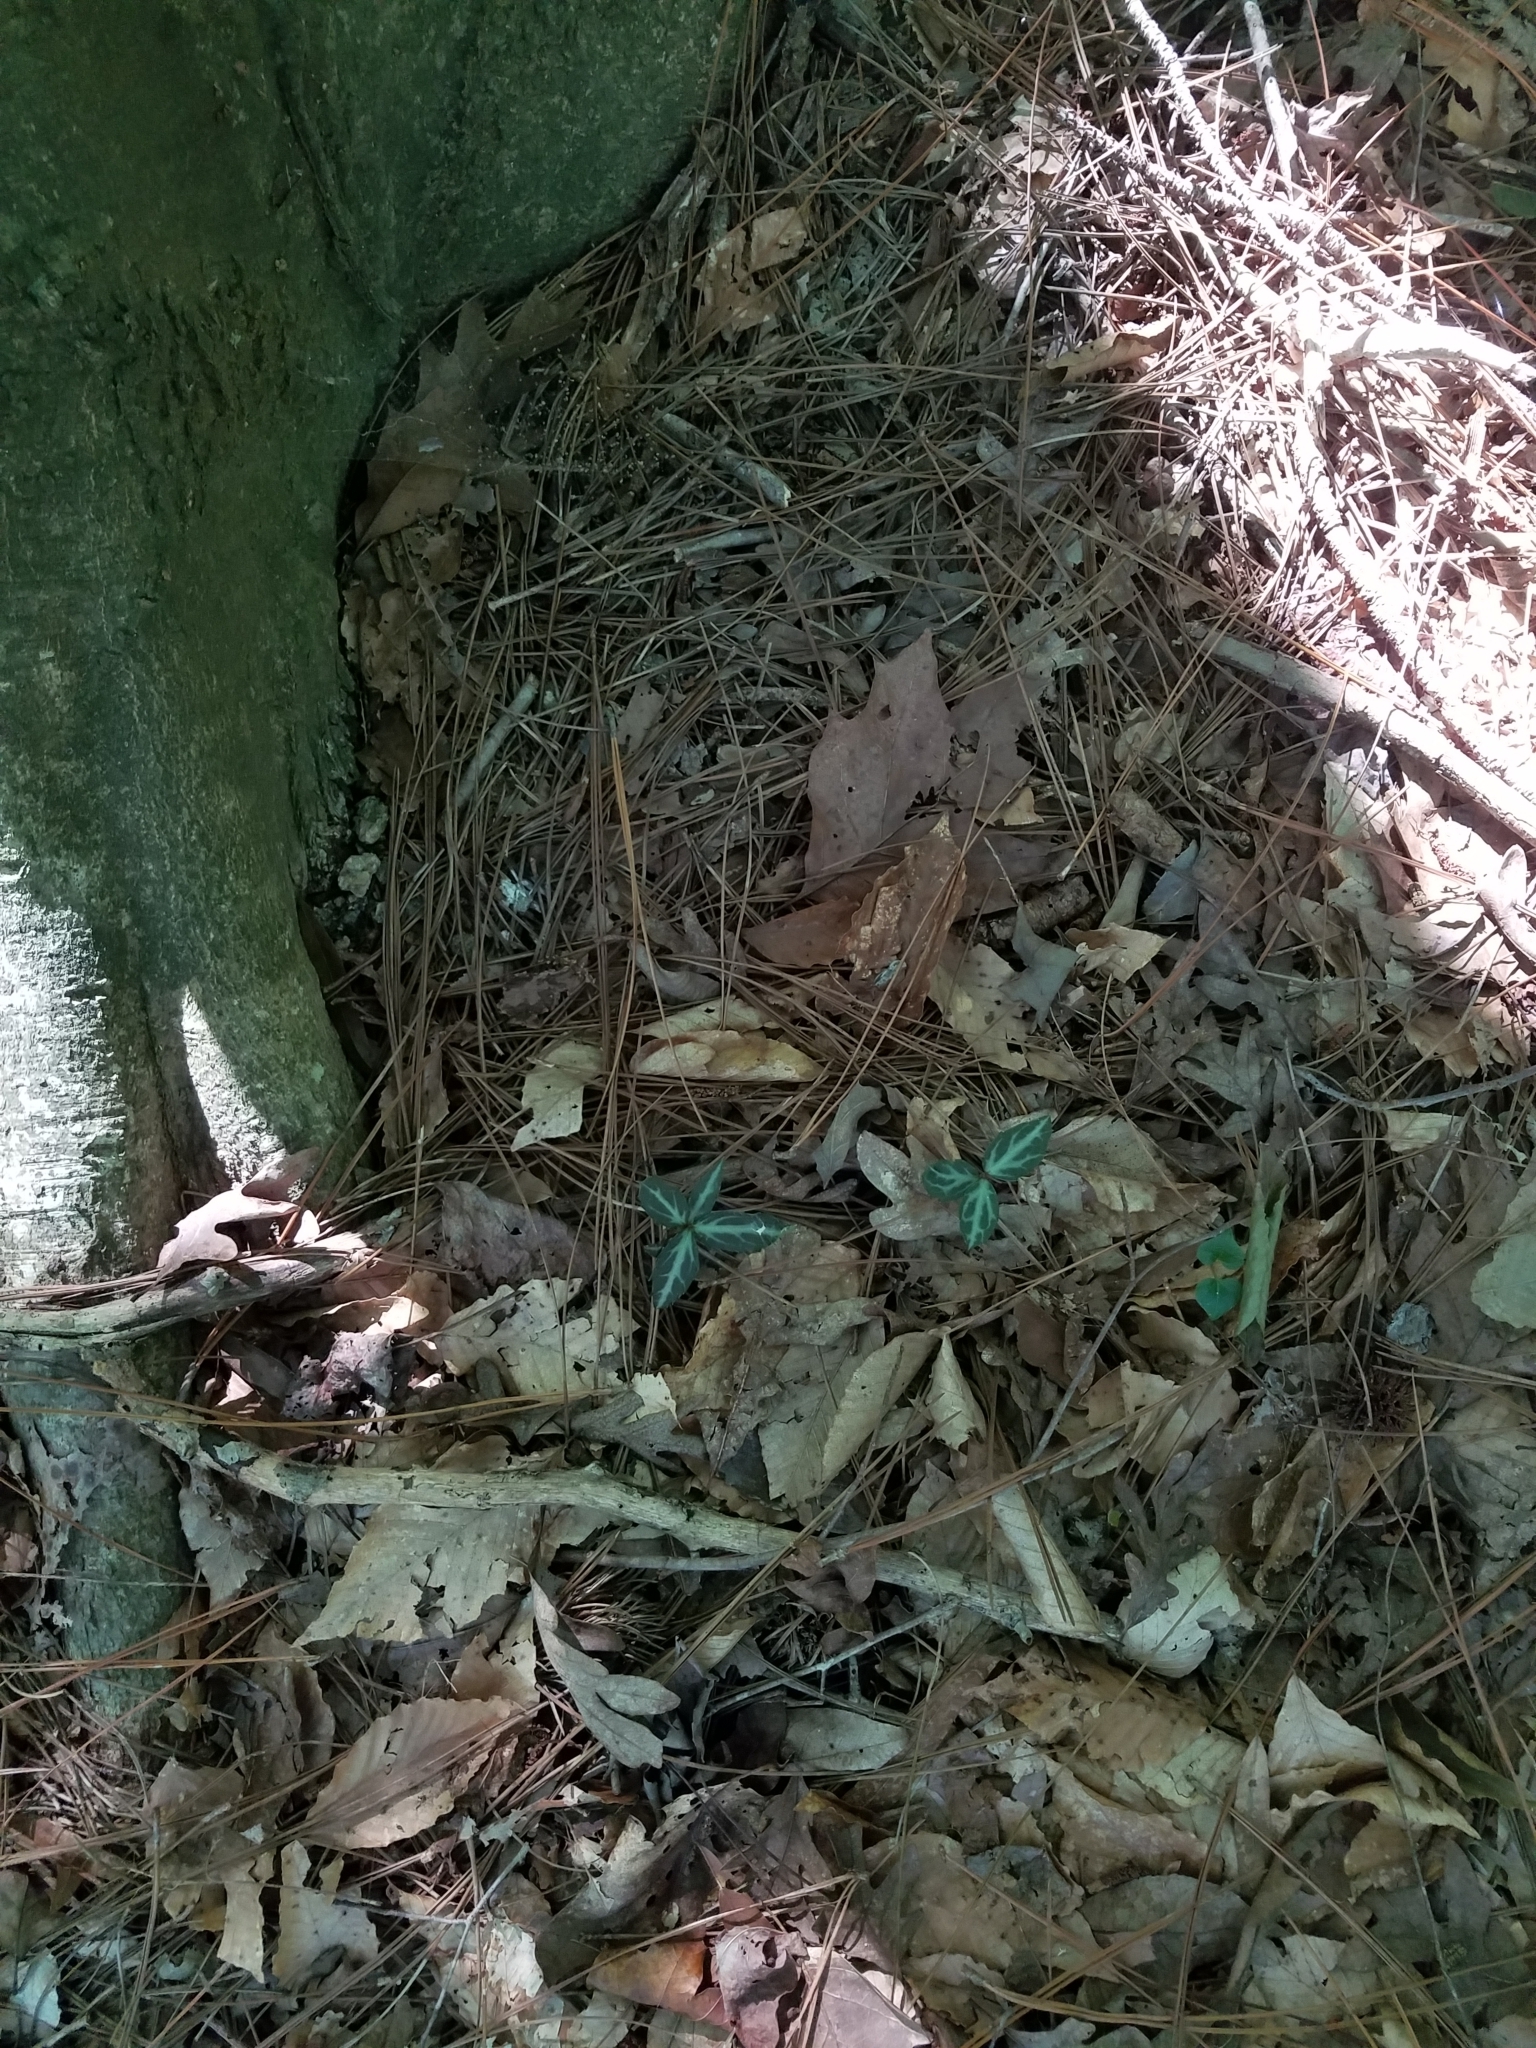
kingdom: Plantae
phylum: Tracheophyta
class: Magnoliopsida
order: Ericales
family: Ericaceae
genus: Chimaphila
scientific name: Chimaphila maculata
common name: Spotted pipsissewa
